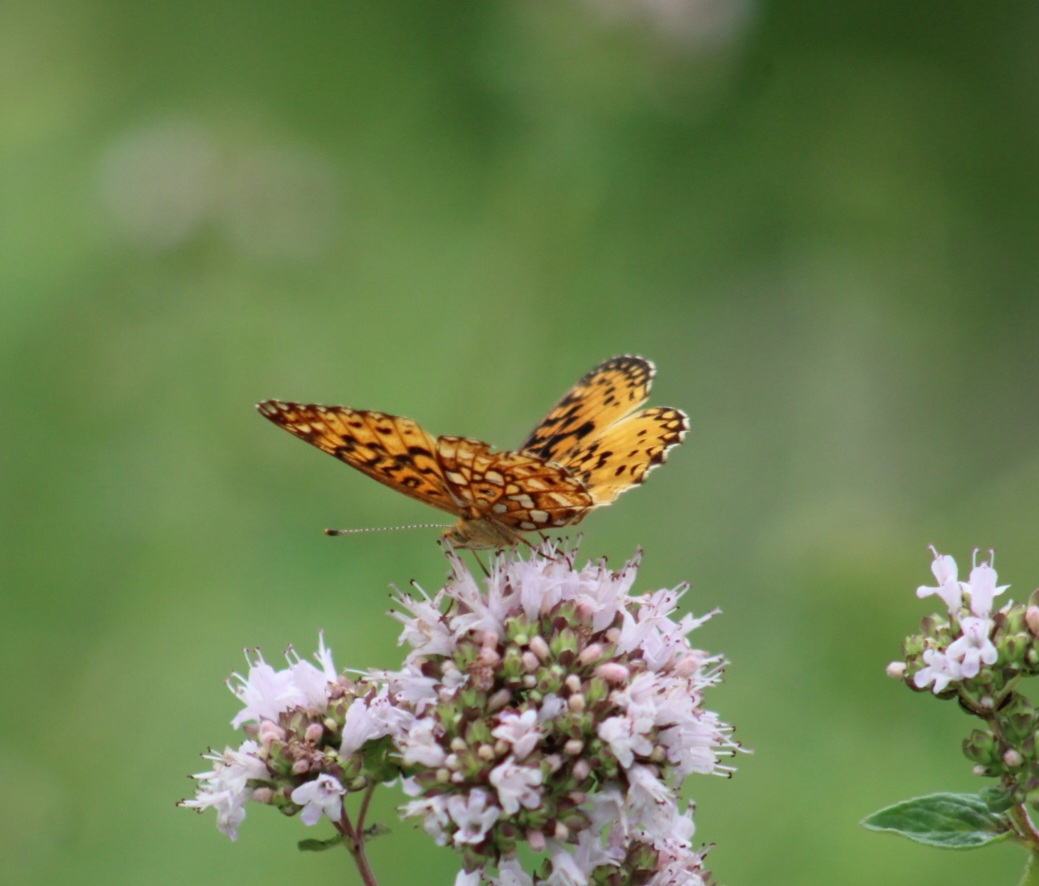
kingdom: Animalia
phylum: Arthropoda
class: Insecta
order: Lepidoptera
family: Nymphalidae
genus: Boloria
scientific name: Boloria
